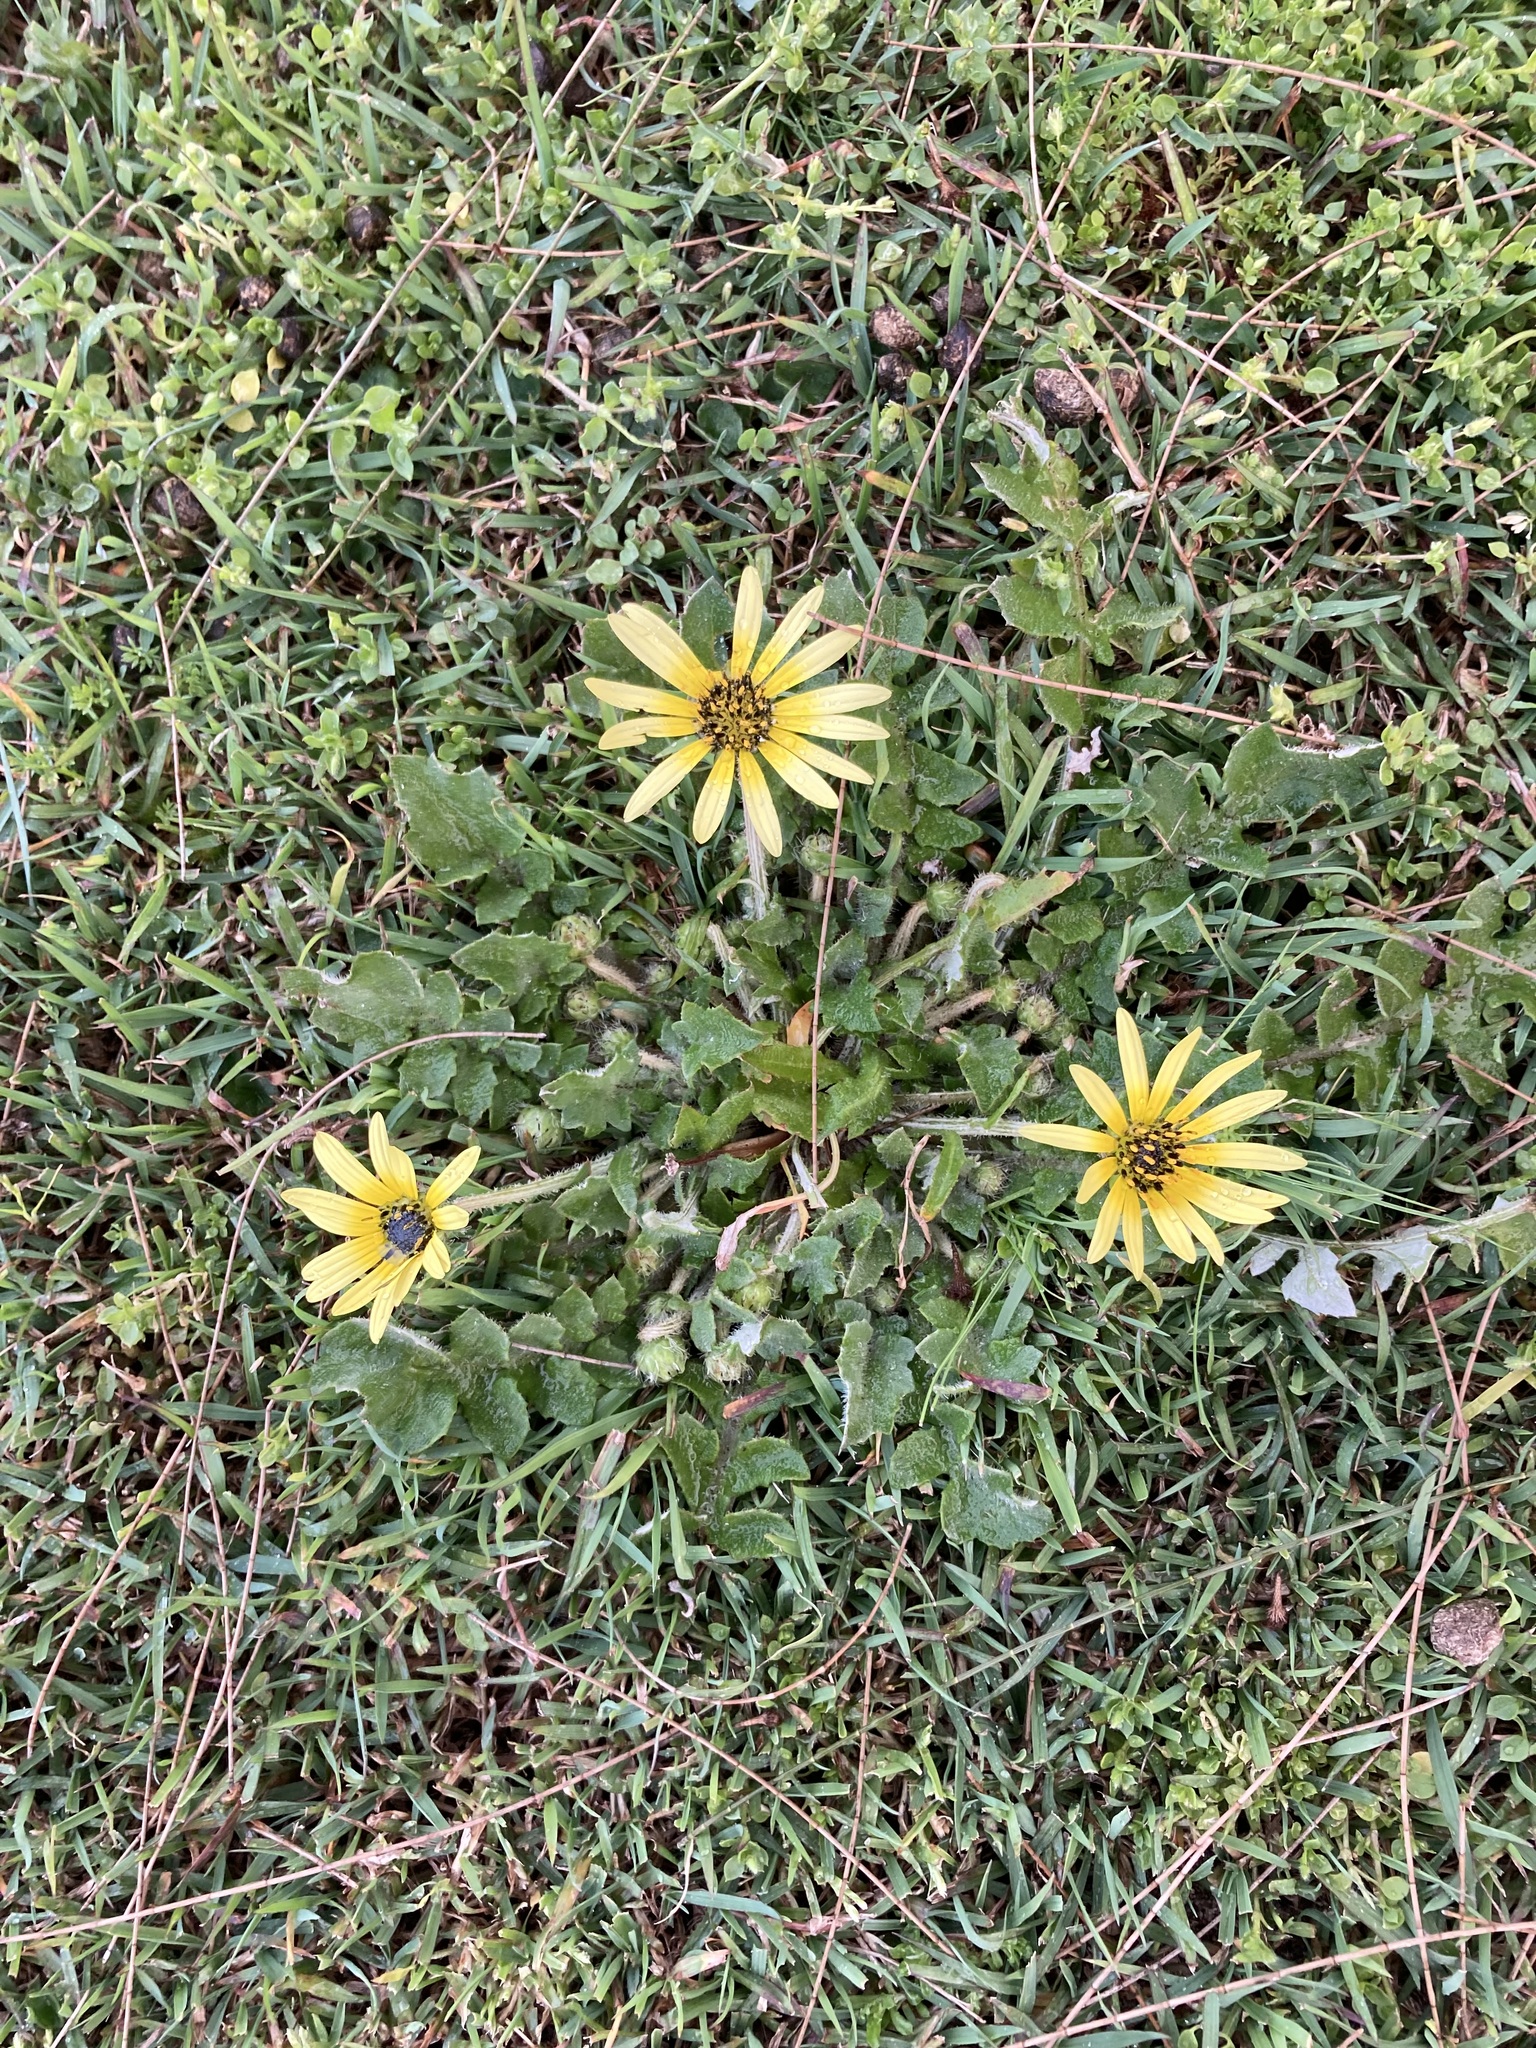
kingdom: Plantae
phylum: Tracheophyta
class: Magnoliopsida
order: Asterales
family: Asteraceae
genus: Arctotheca
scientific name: Arctotheca calendula
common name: Capeweed
